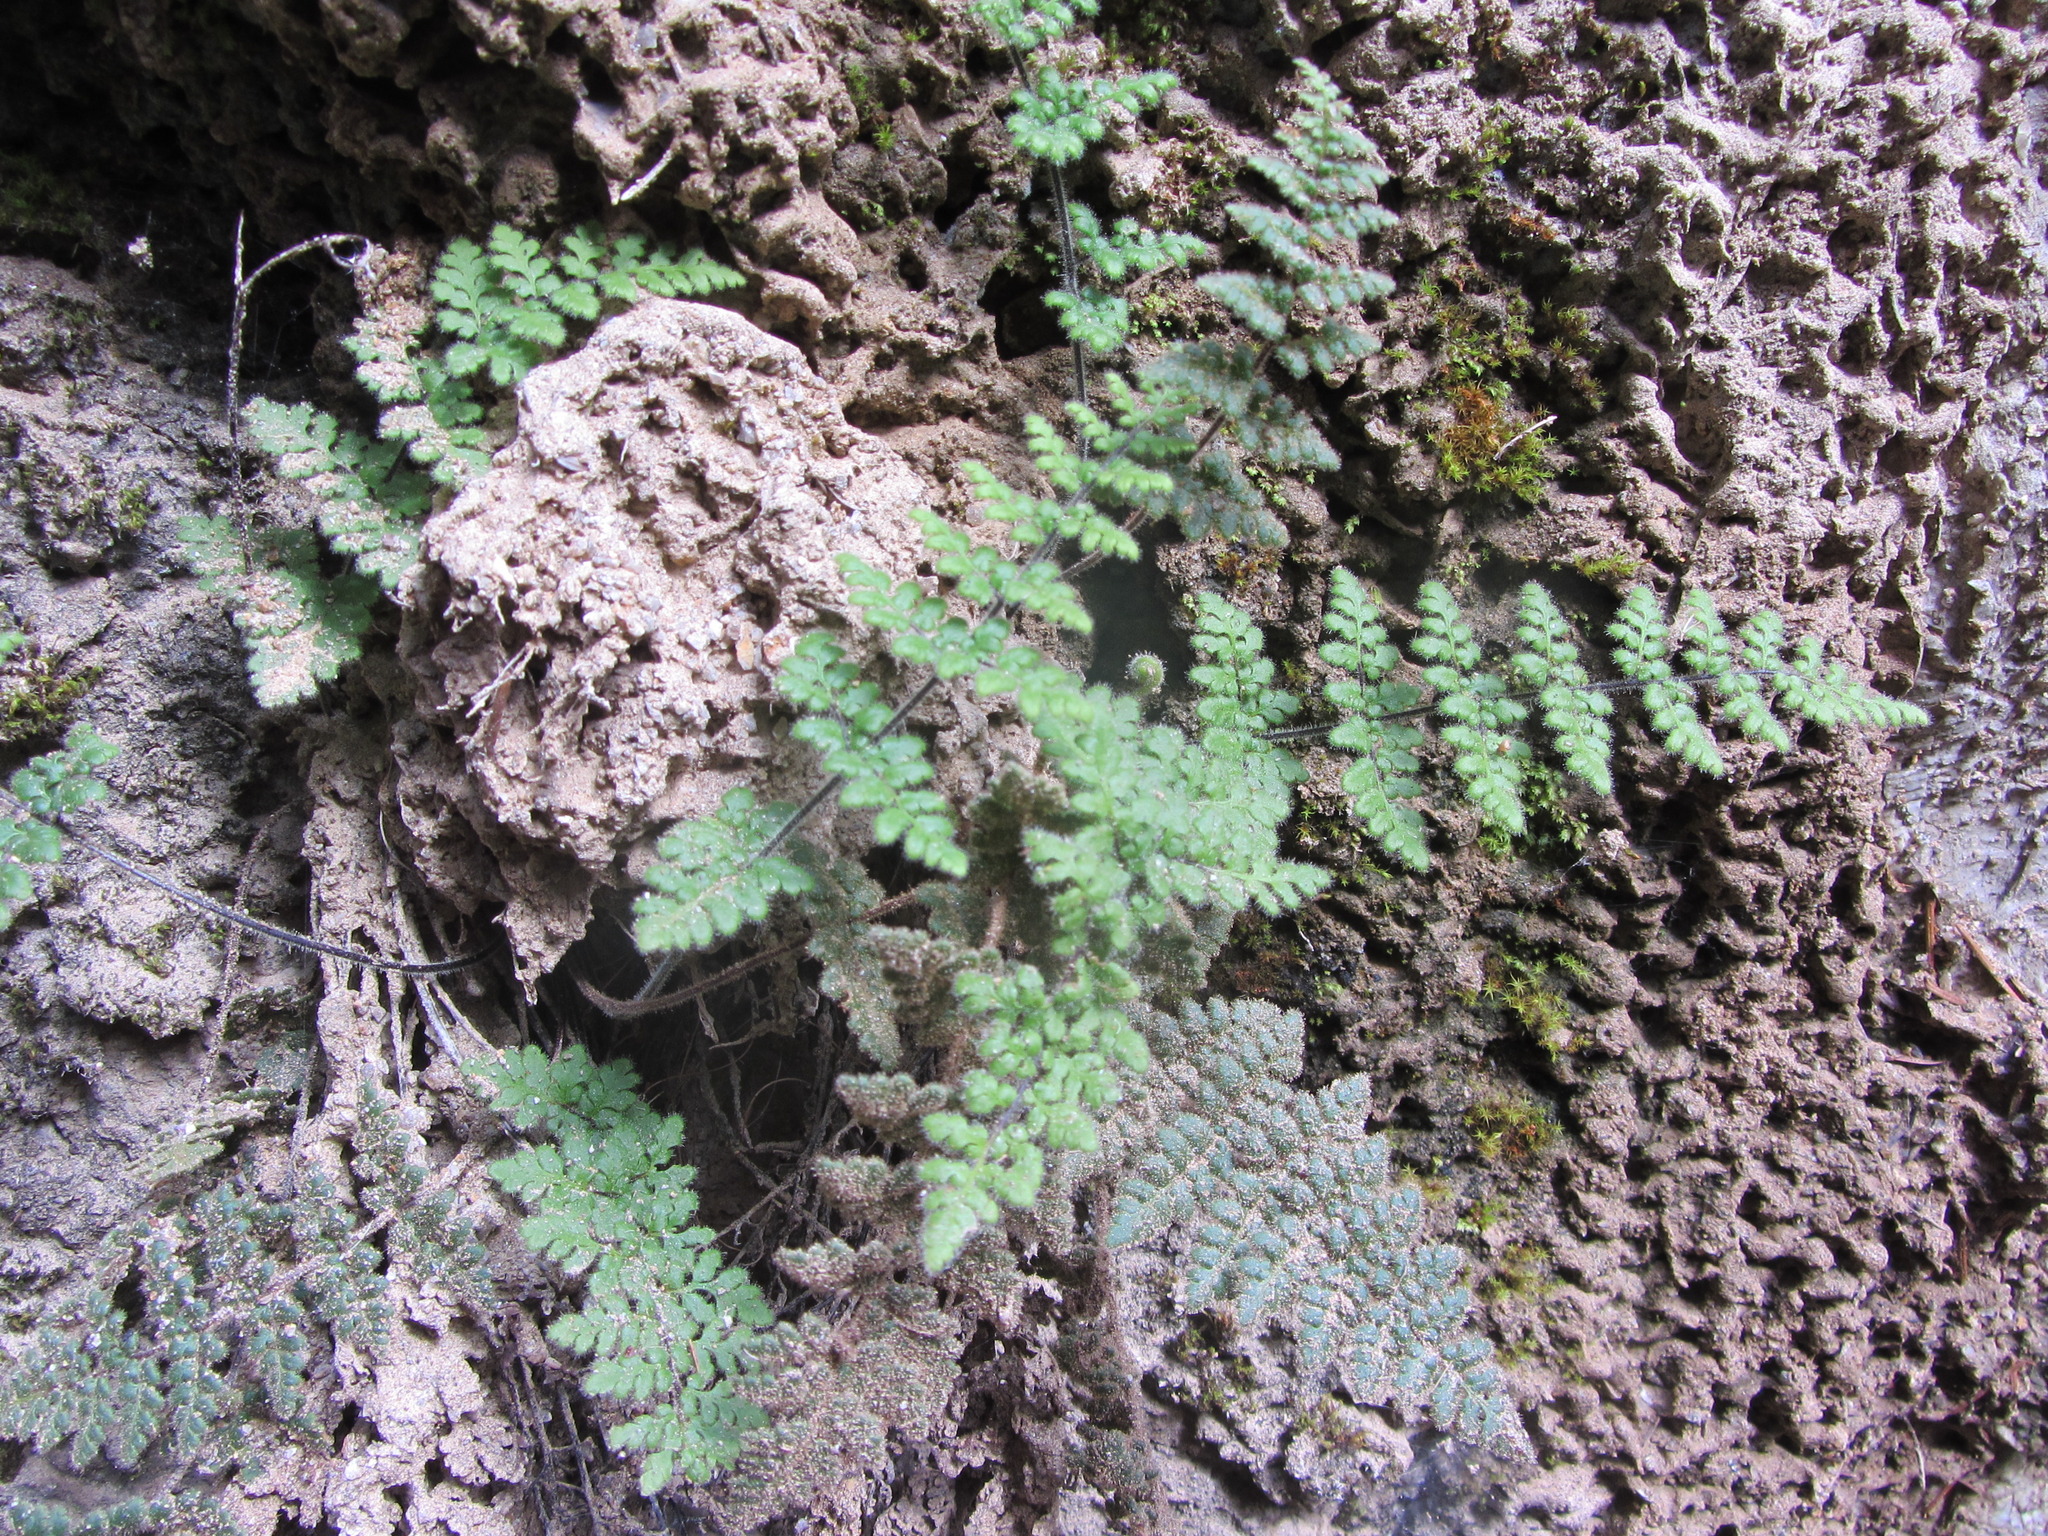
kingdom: Plantae
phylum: Tracheophyta
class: Polypodiopsida
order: Polypodiales
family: Pteridaceae
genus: Myriopteris
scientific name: Myriopteris cooperae
